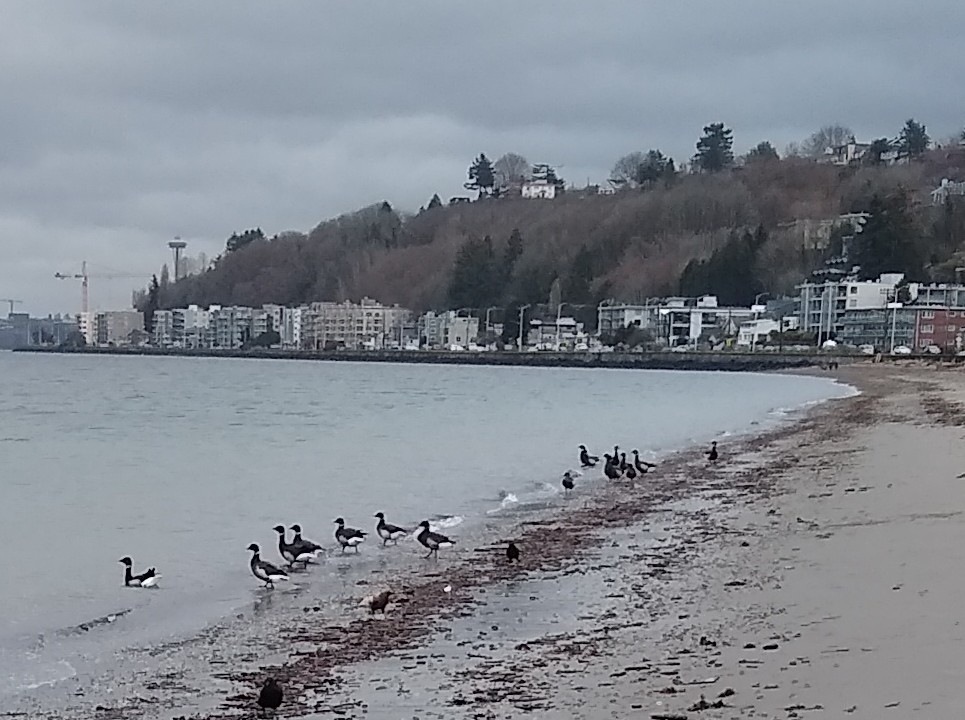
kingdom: Animalia
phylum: Chordata
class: Aves
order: Anseriformes
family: Anatidae
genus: Branta
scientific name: Branta bernicla
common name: Brant goose
